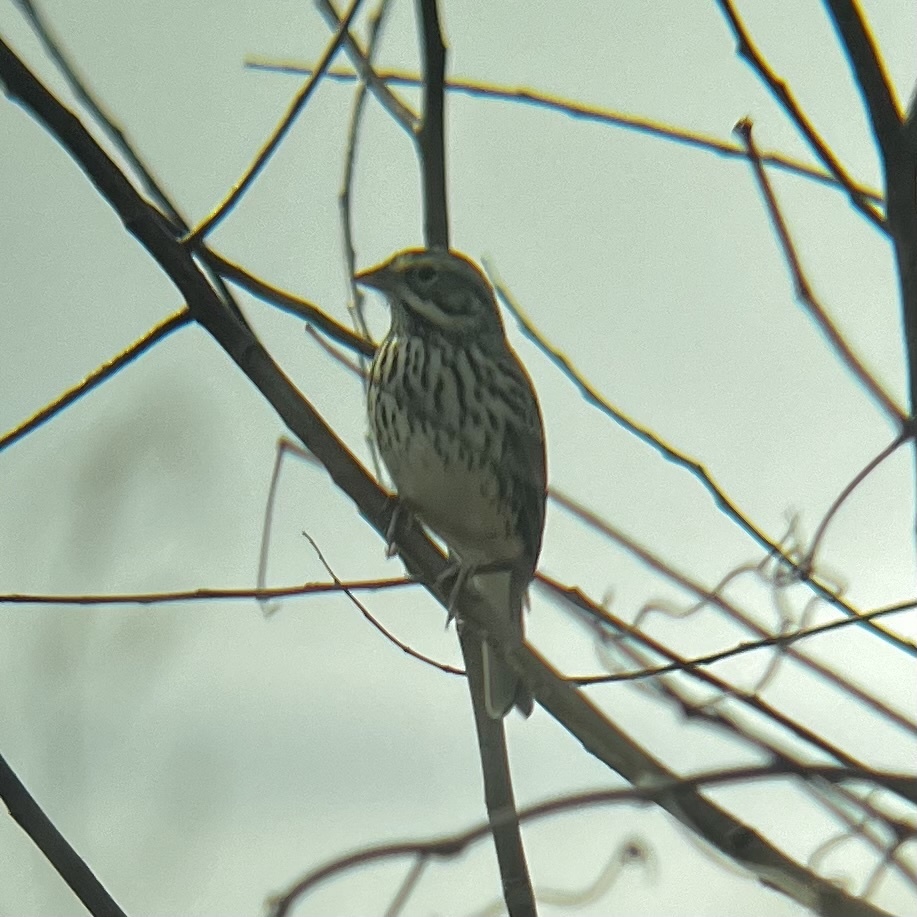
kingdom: Animalia
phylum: Chordata
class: Aves
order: Passeriformes
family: Passerellidae
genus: Passerculus
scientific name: Passerculus sandwichensis
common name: Savannah sparrow
